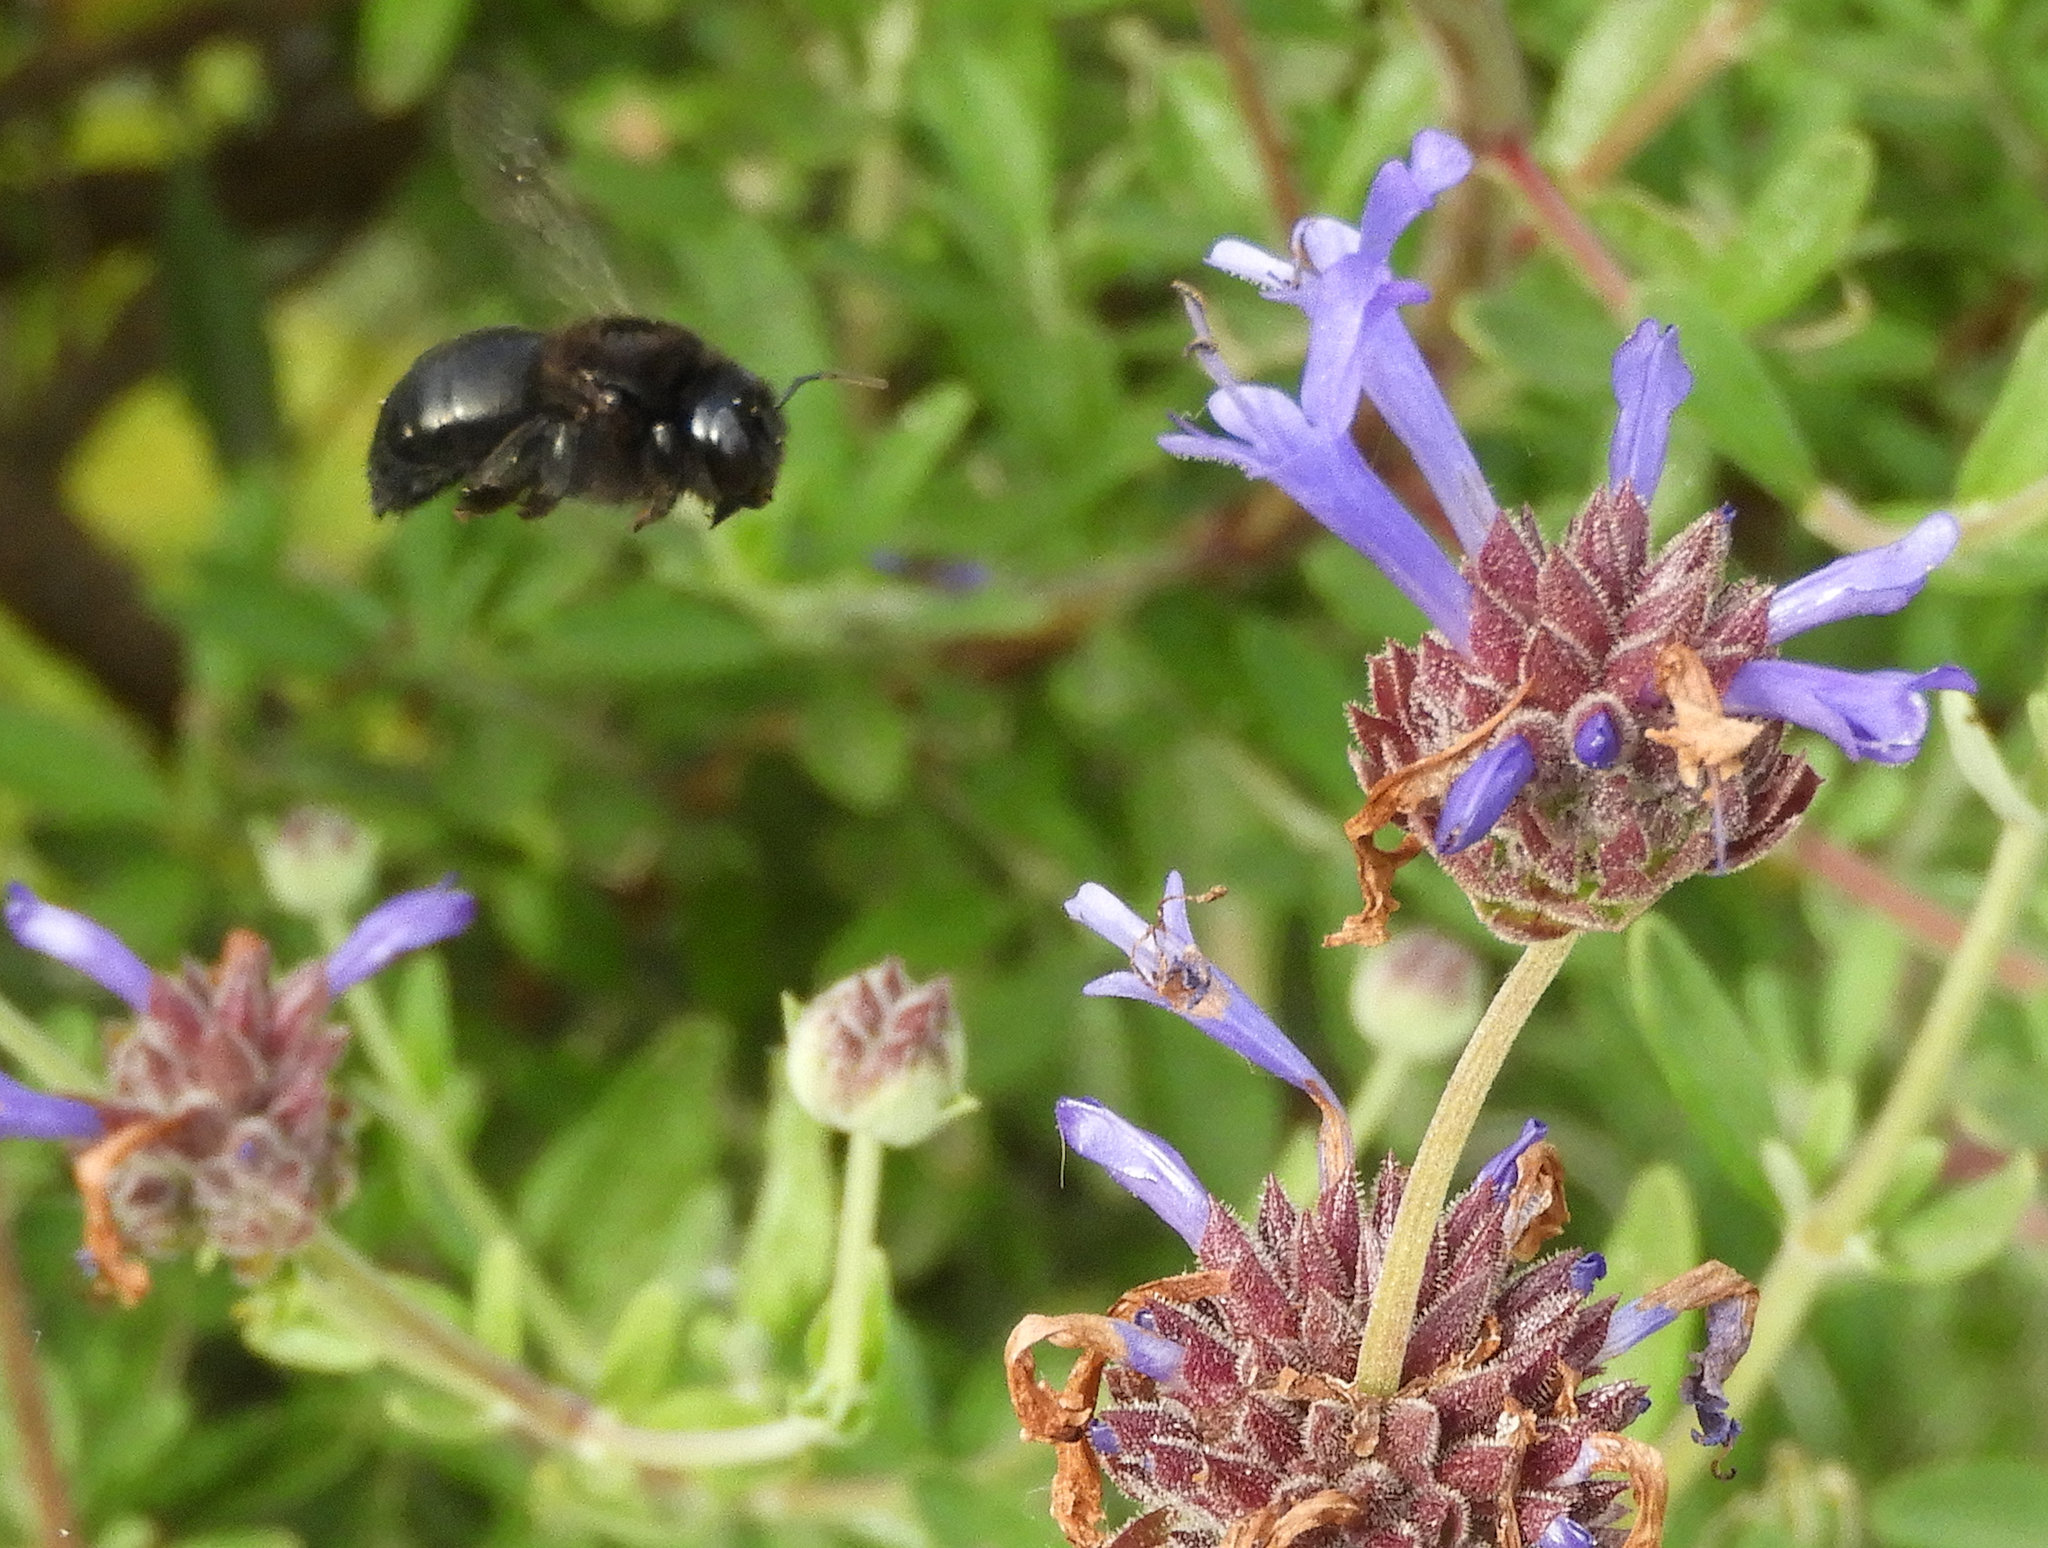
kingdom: Animalia
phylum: Arthropoda
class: Insecta
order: Hymenoptera
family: Apidae
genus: Xylocopa
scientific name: Xylocopa tabaniformis
